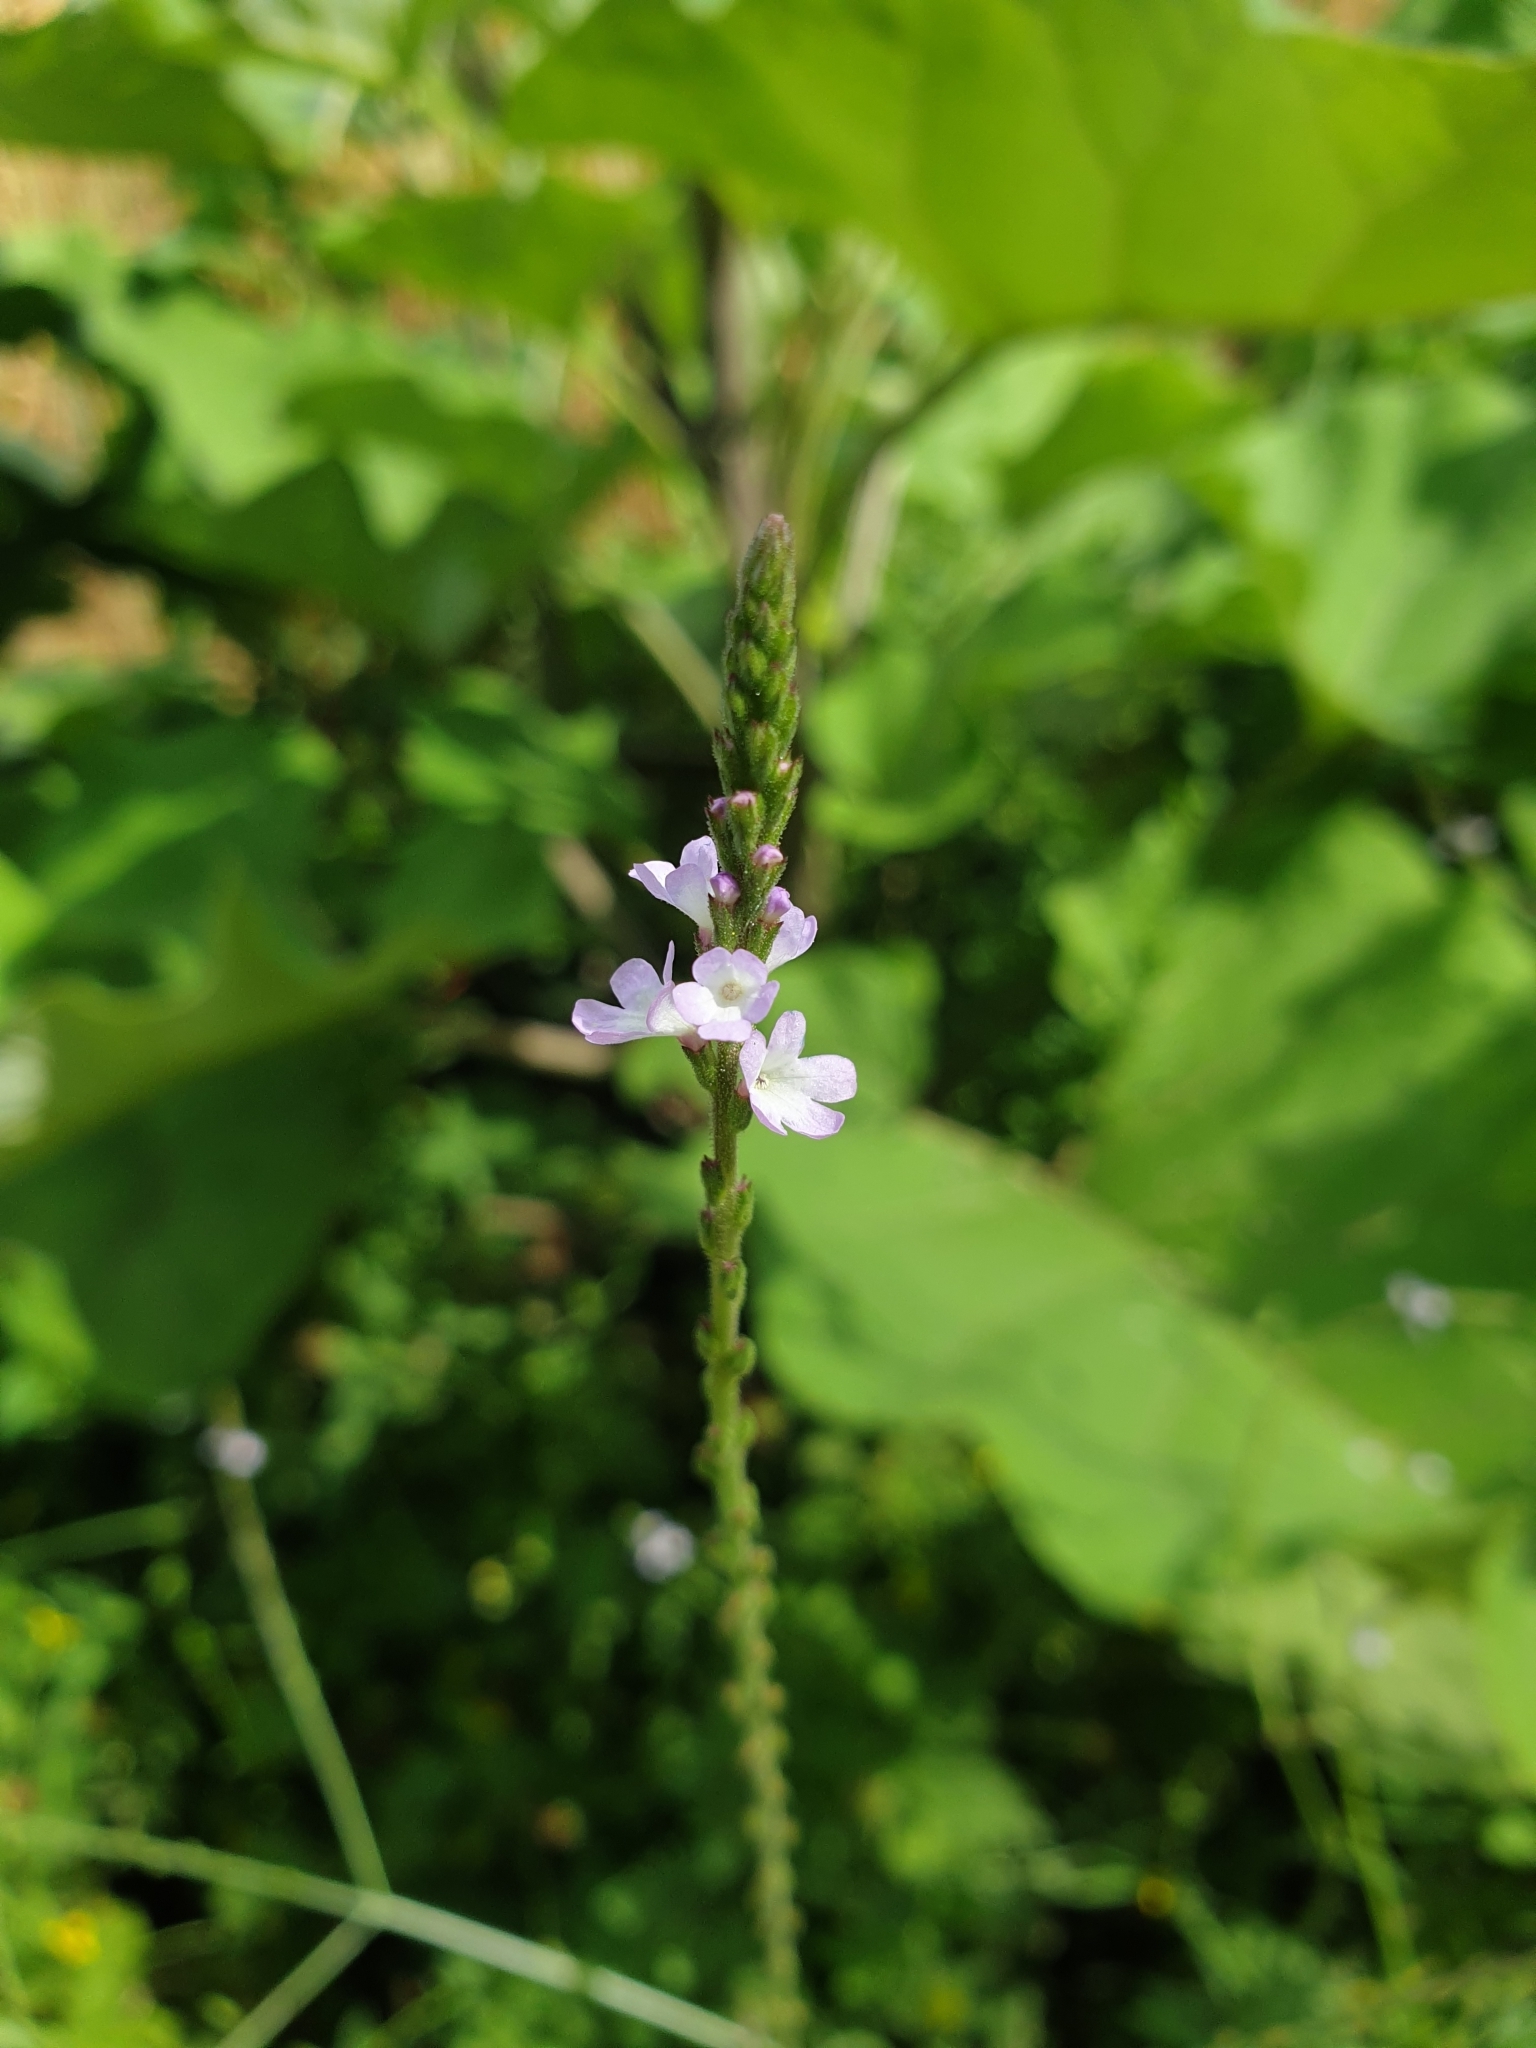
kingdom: Plantae
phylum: Tracheophyta
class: Magnoliopsida
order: Lamiales
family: Verbenaceae
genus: Verbena
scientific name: Verbena officinalis
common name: Vervain
